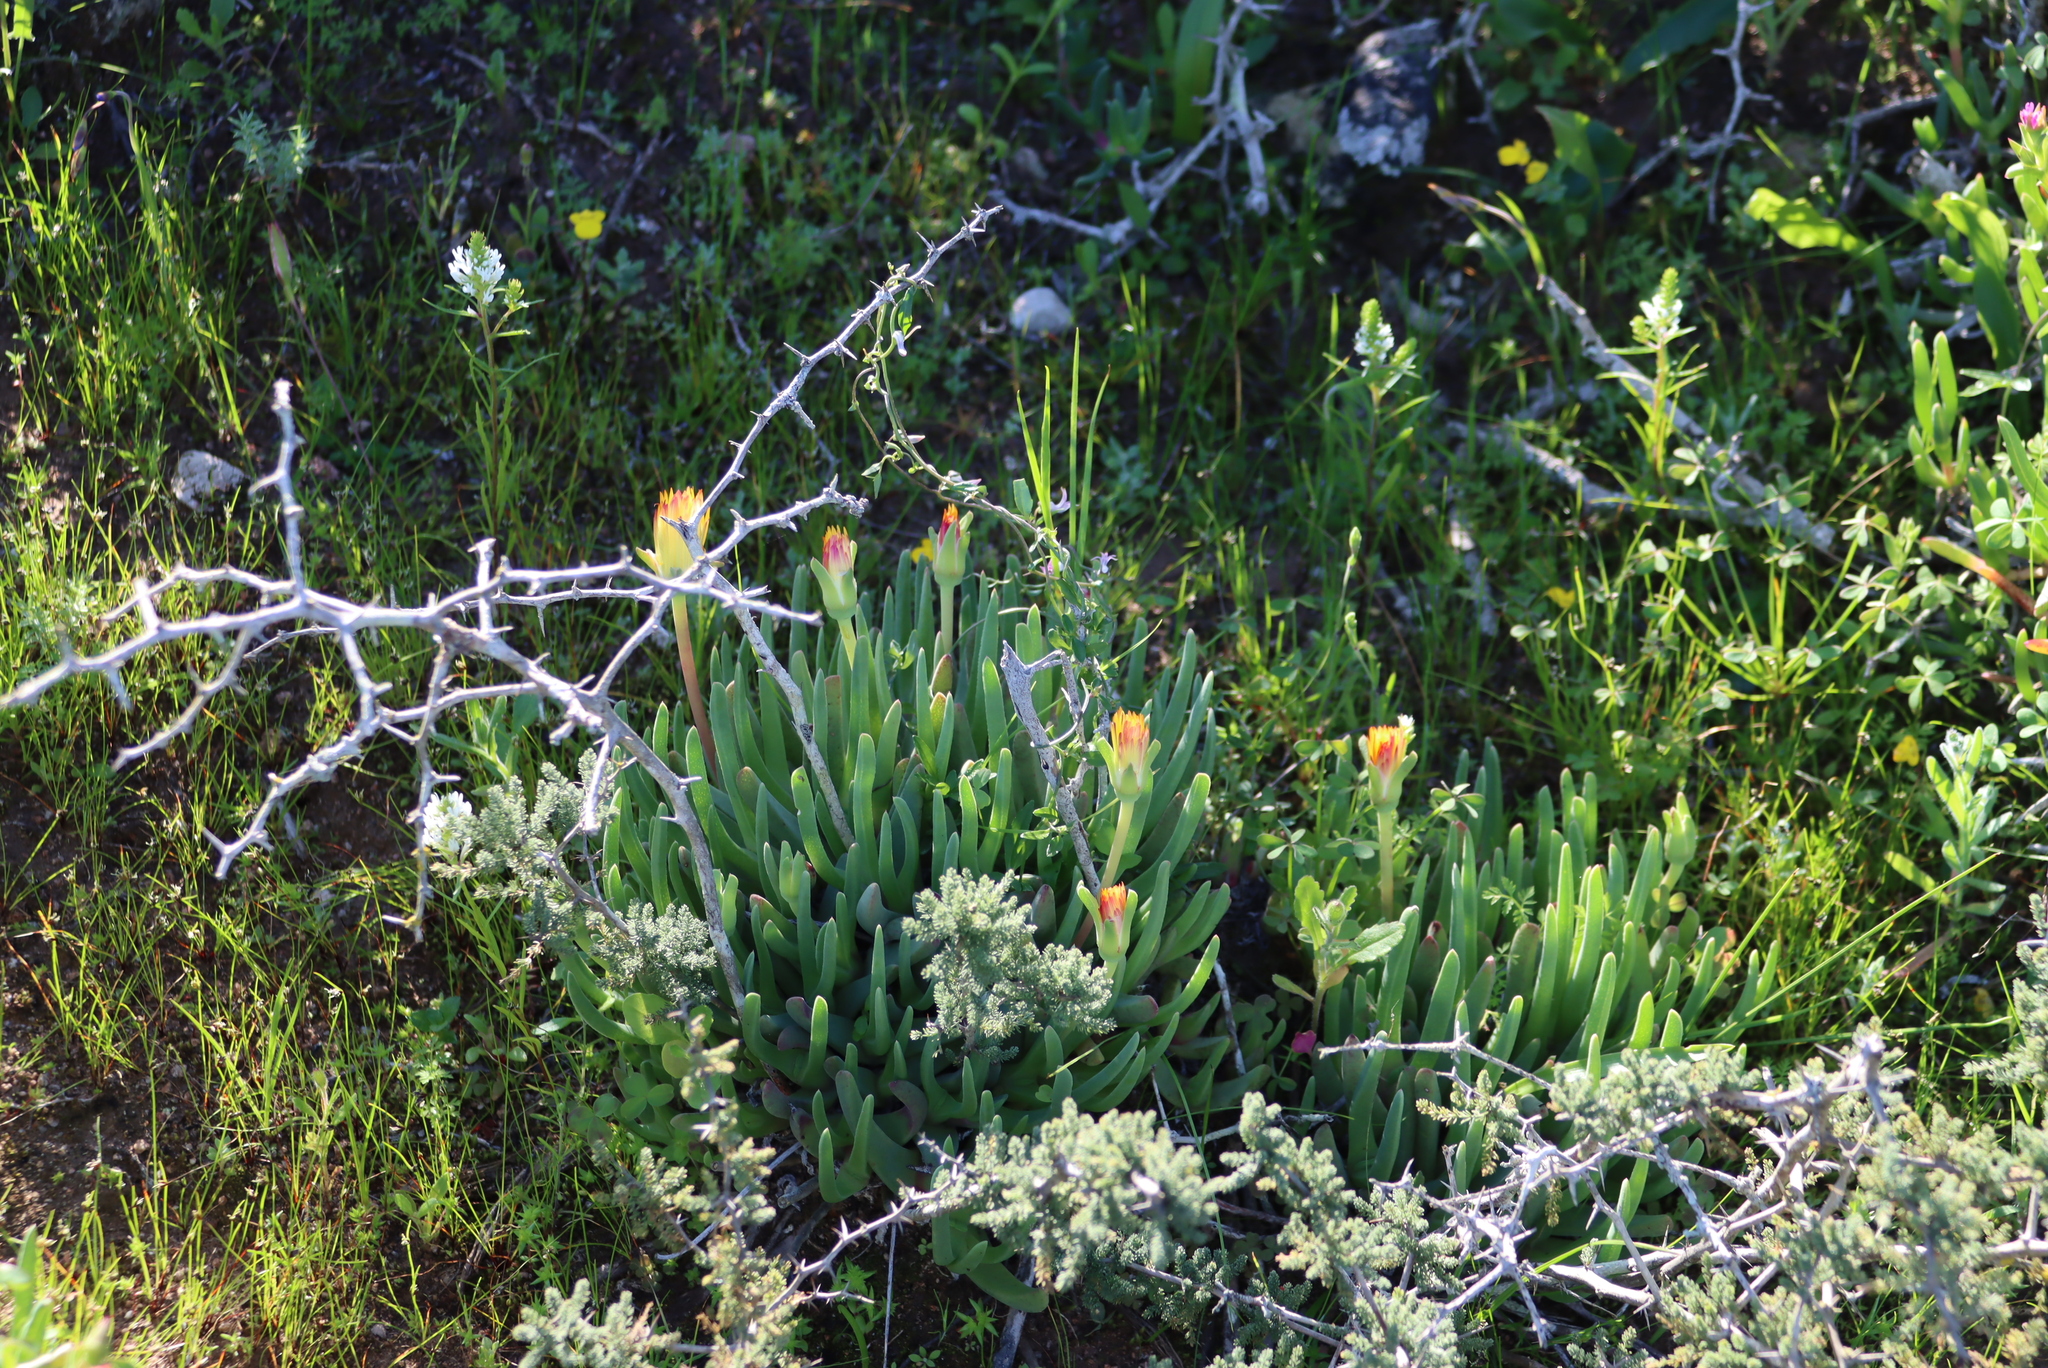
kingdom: Plantae
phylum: Tracheophyta
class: Magnoliopsida
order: Caryophyllales
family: Aizoaceae
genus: Cheiridopsis
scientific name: Cheiridopsis rostrata
